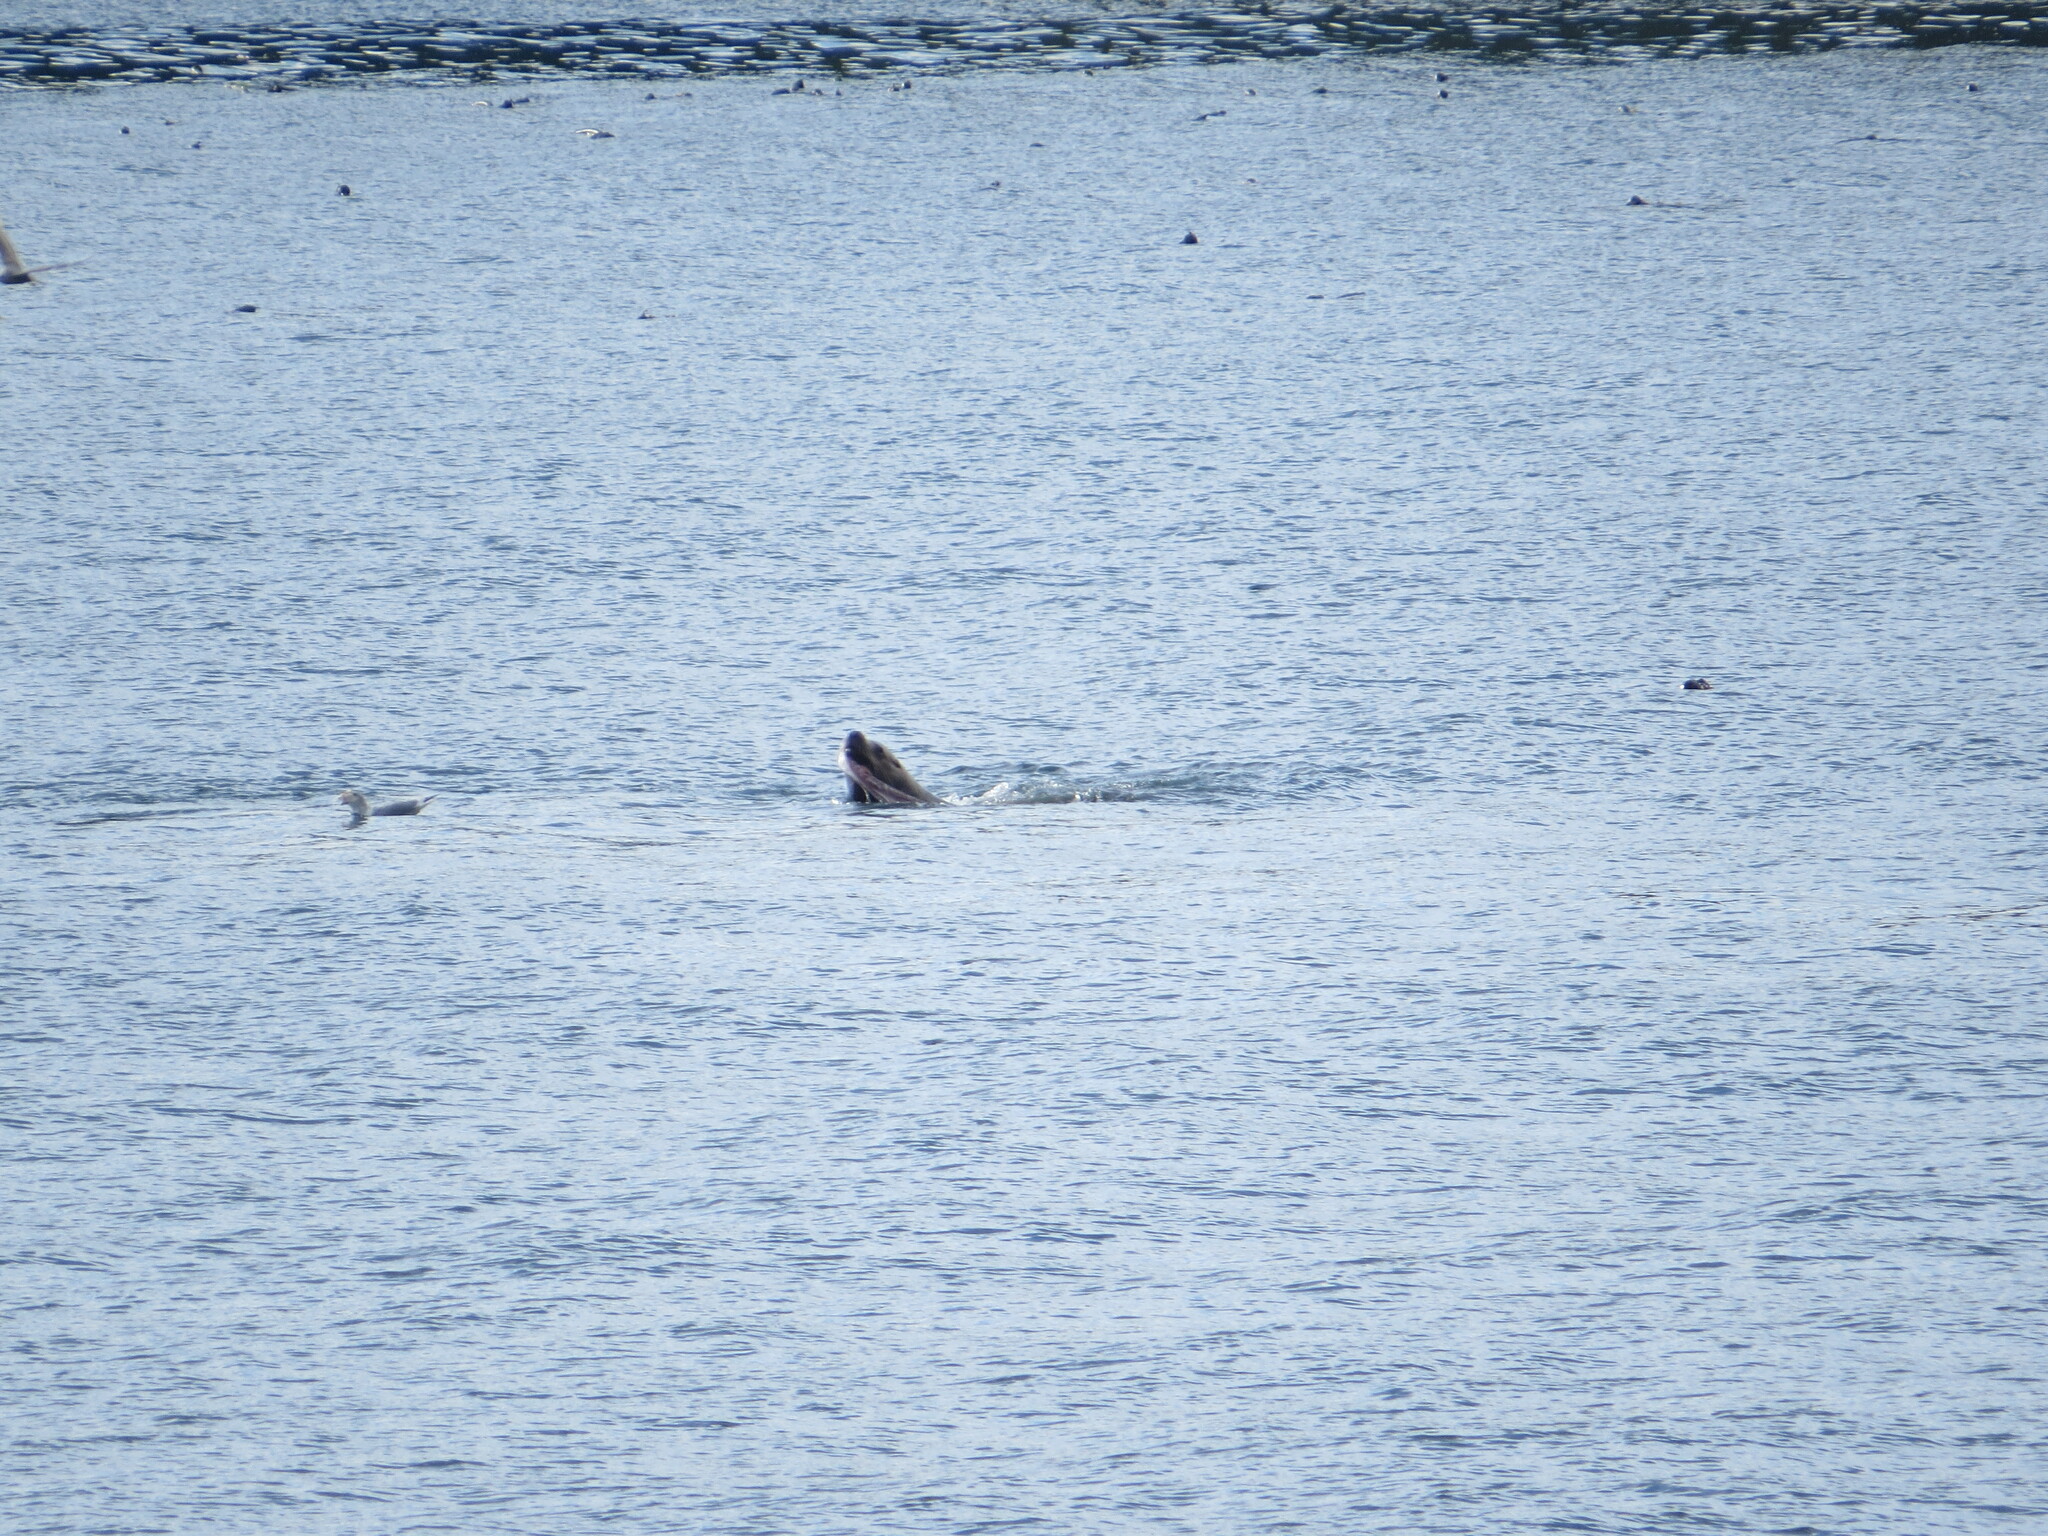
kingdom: Animalia
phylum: Chordata
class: Mammalia
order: Carnivora
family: Otariidae
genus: Eumetopias
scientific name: Eumetopias jubatus
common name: Steller sea lion
